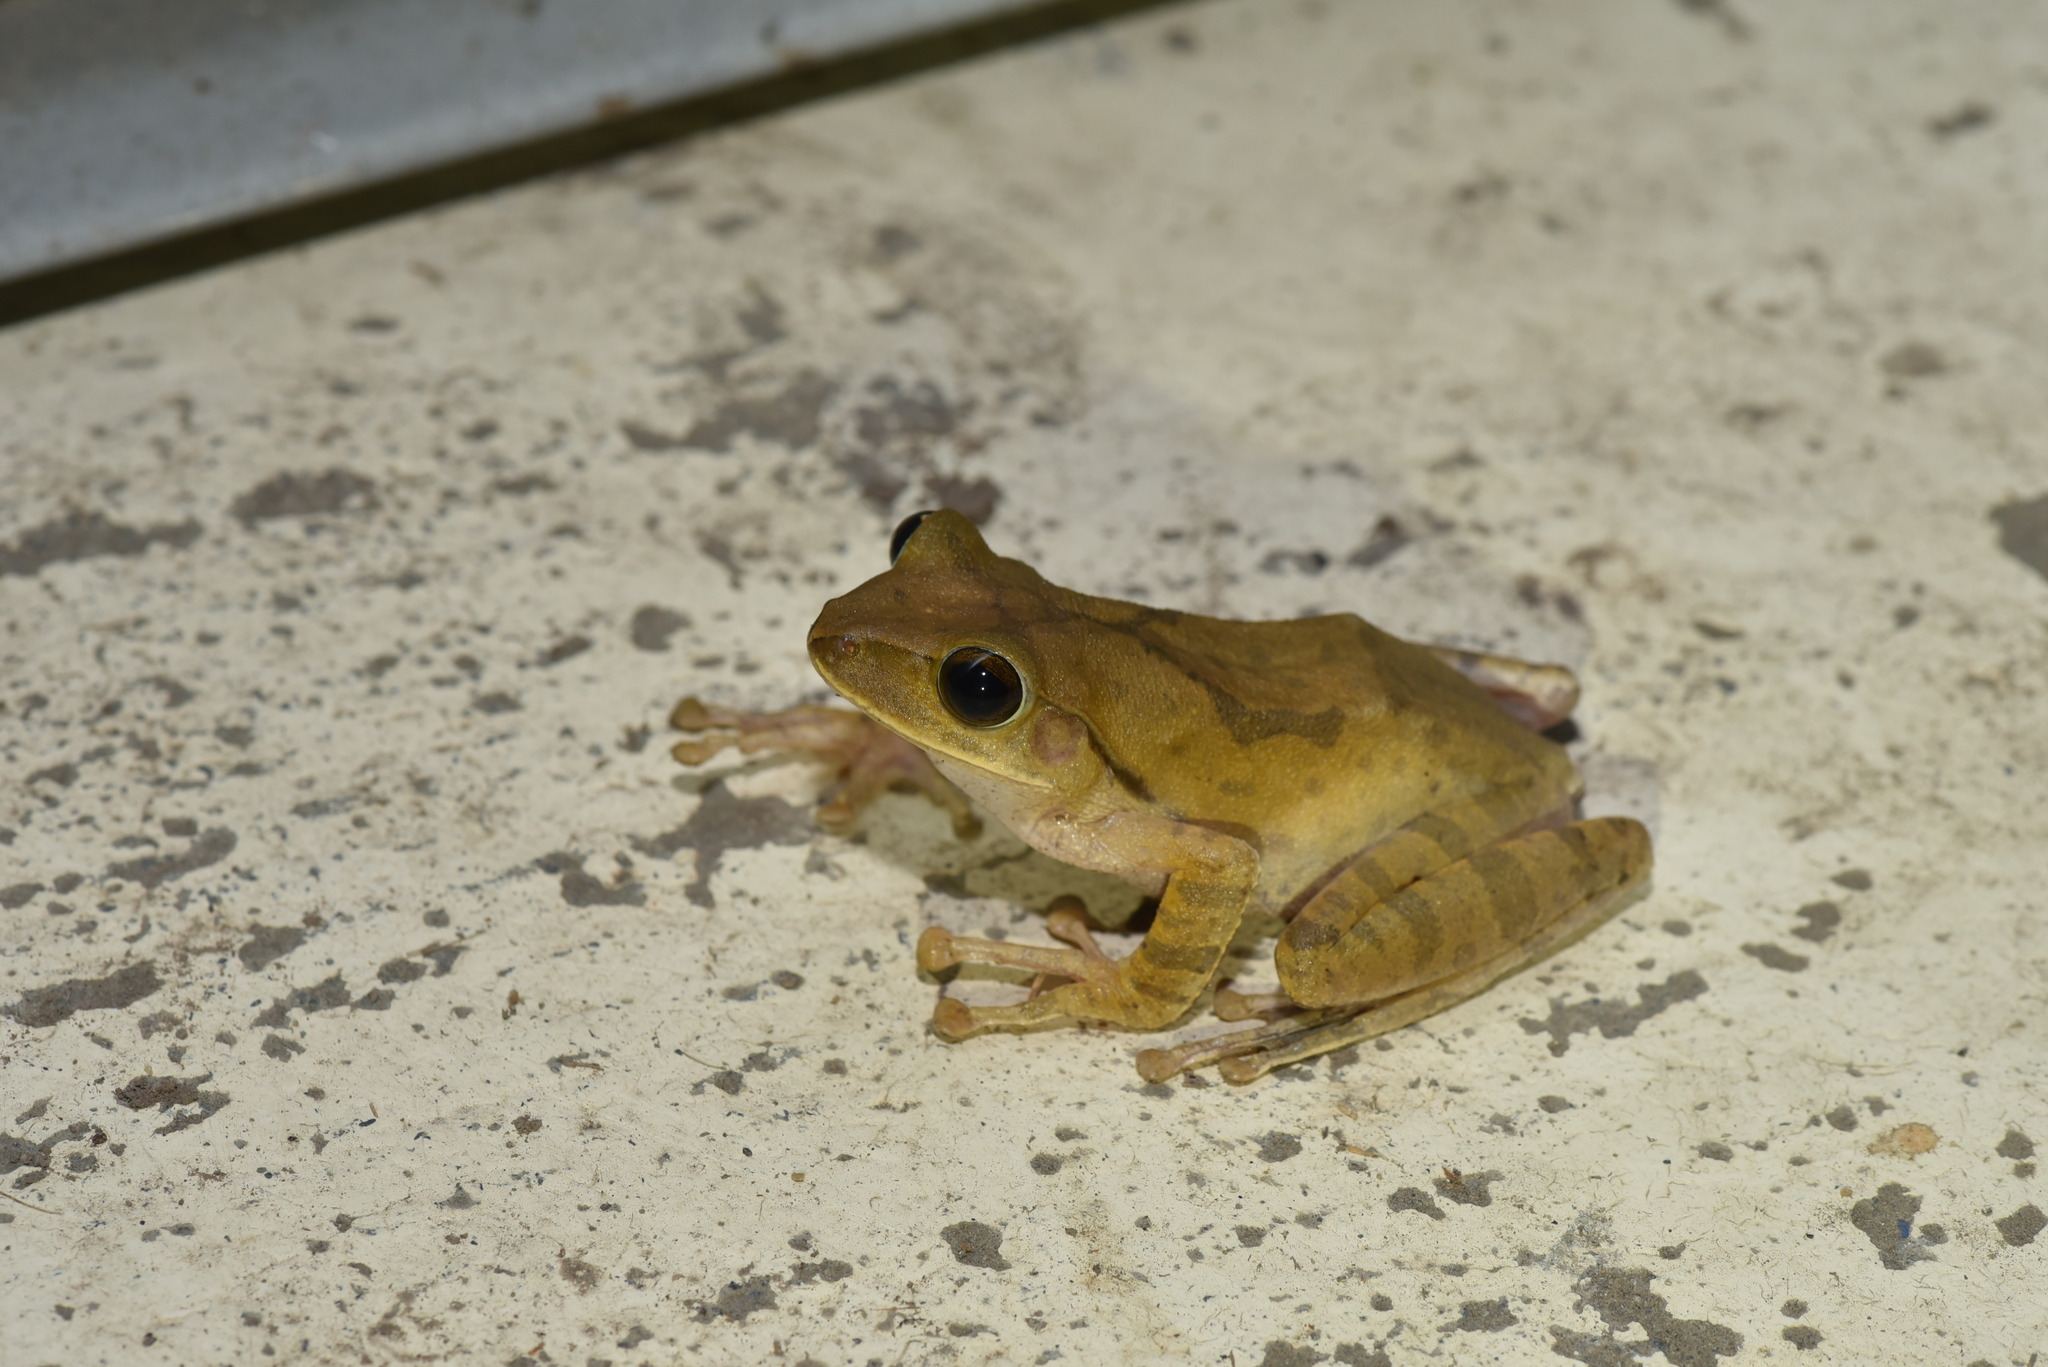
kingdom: Animalia
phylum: Chordata
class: Amphibia
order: Anura
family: Rhacophoridae
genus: Polypedates
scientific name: Polypedates megacephalus
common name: Hong kong whipping frog
